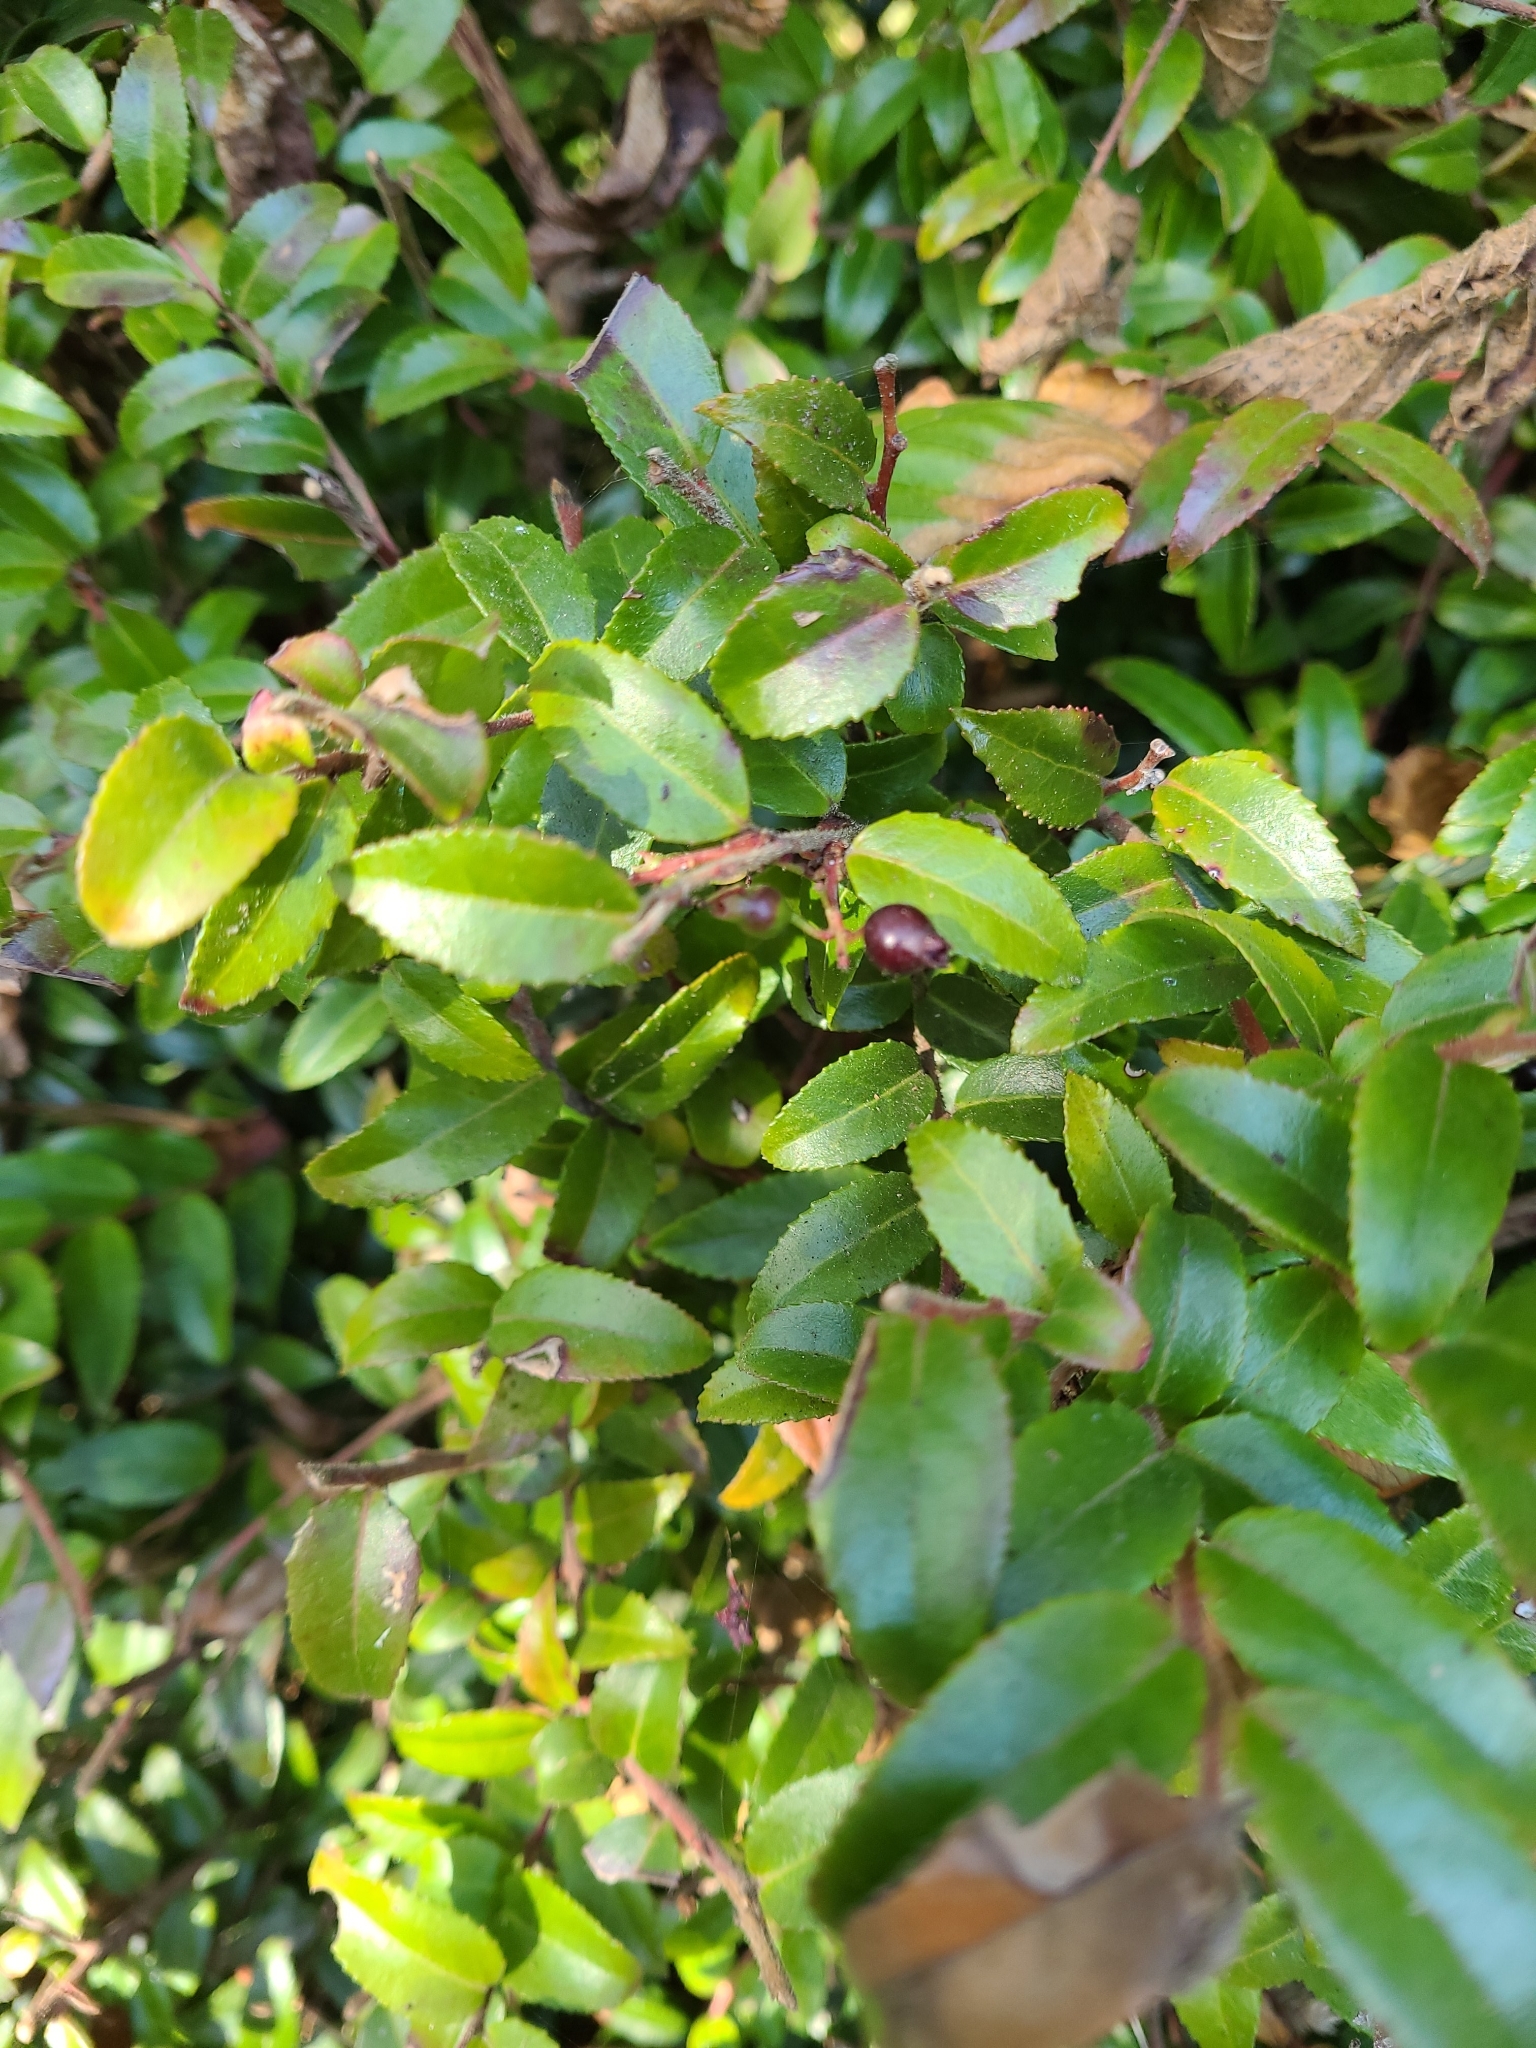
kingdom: Plantae
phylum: Tracheophyta
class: Magnoliopsida
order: Ericales
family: Ericaceae
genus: Vaccinium
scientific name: Vaccinium ovatum
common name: California-huckleberry
